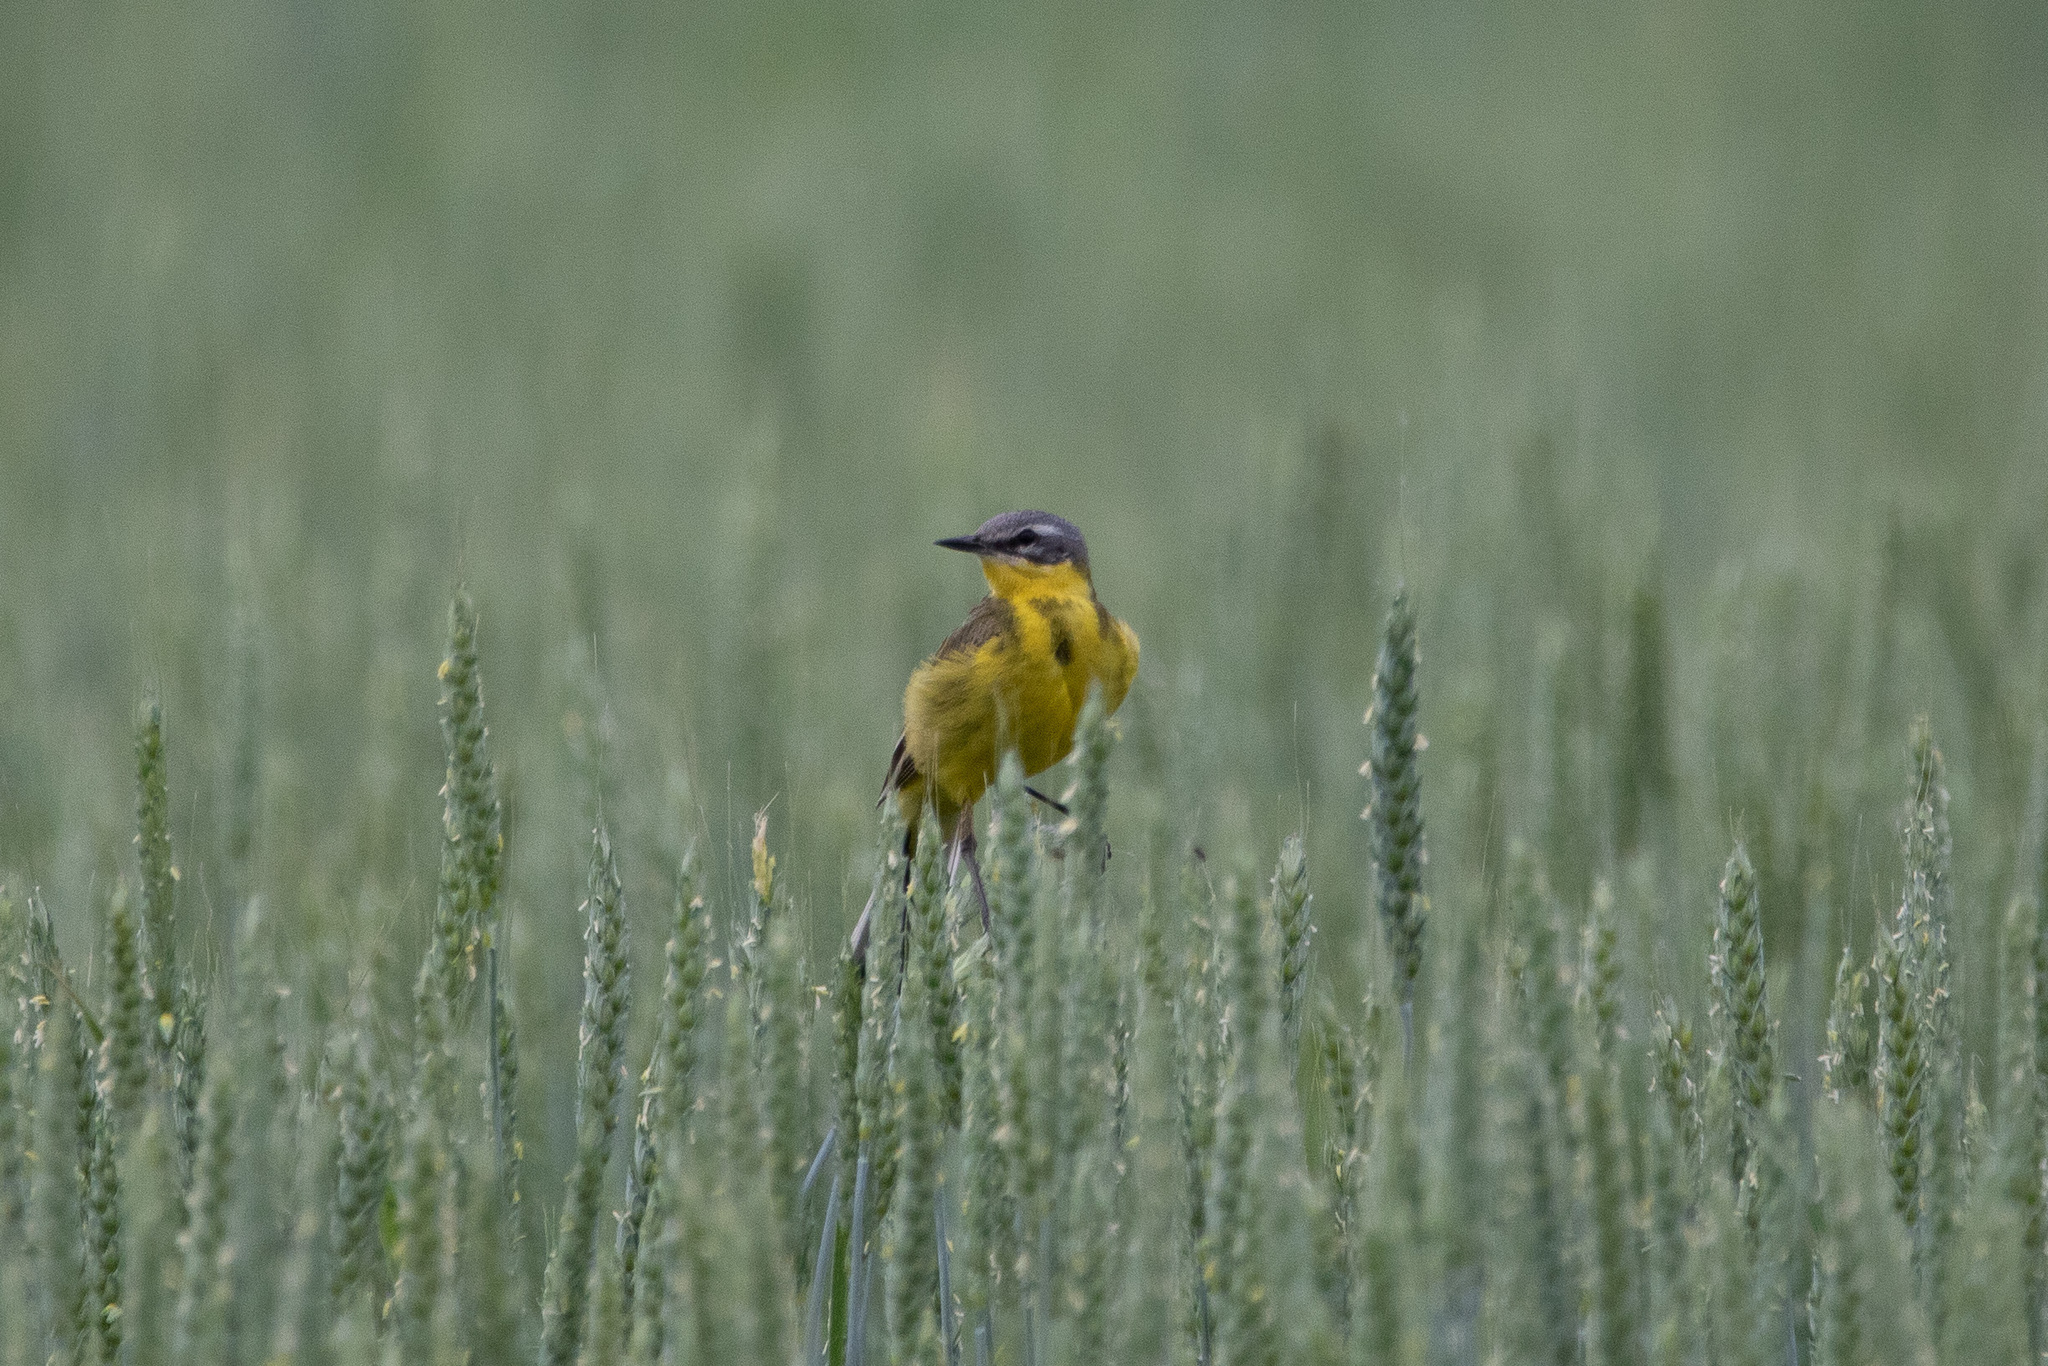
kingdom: Animalia
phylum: Chordata
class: Aves
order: Passeriformes
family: Motacillidae
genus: Motacilla
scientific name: Motacilla flava
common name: Western yellow wagtail
